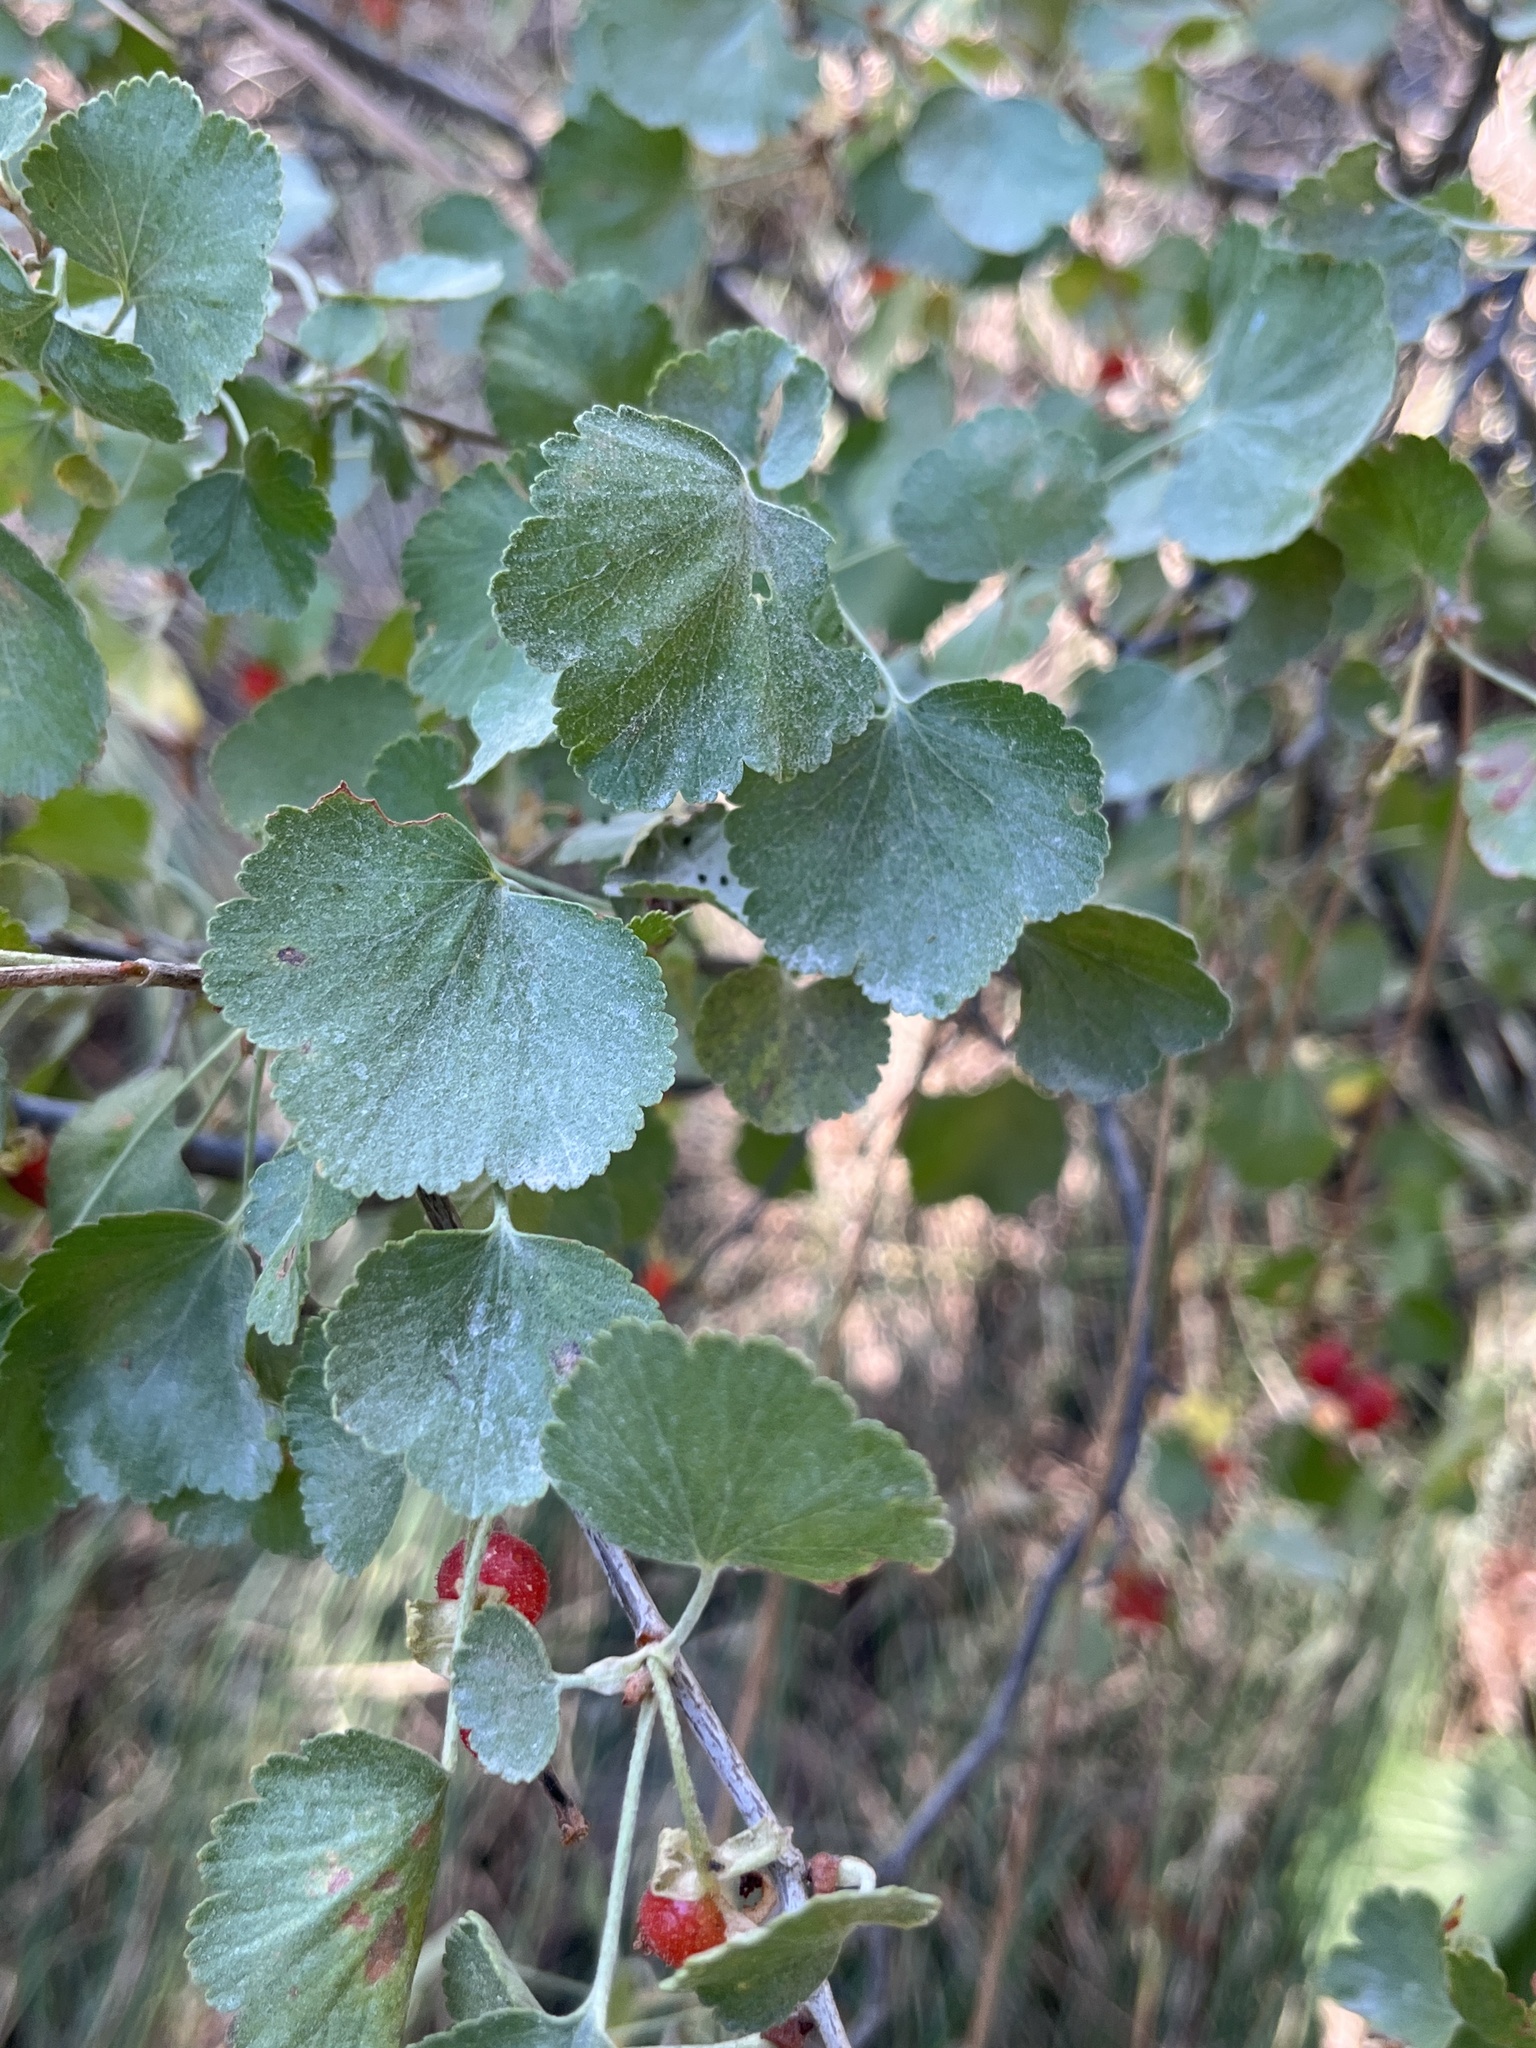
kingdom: Plantae
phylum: Tracheophyta
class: Magnoliopsida
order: Saxifragales
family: Grossulariaceae
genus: Ribes
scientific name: Ribes cereum
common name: Wax currant
